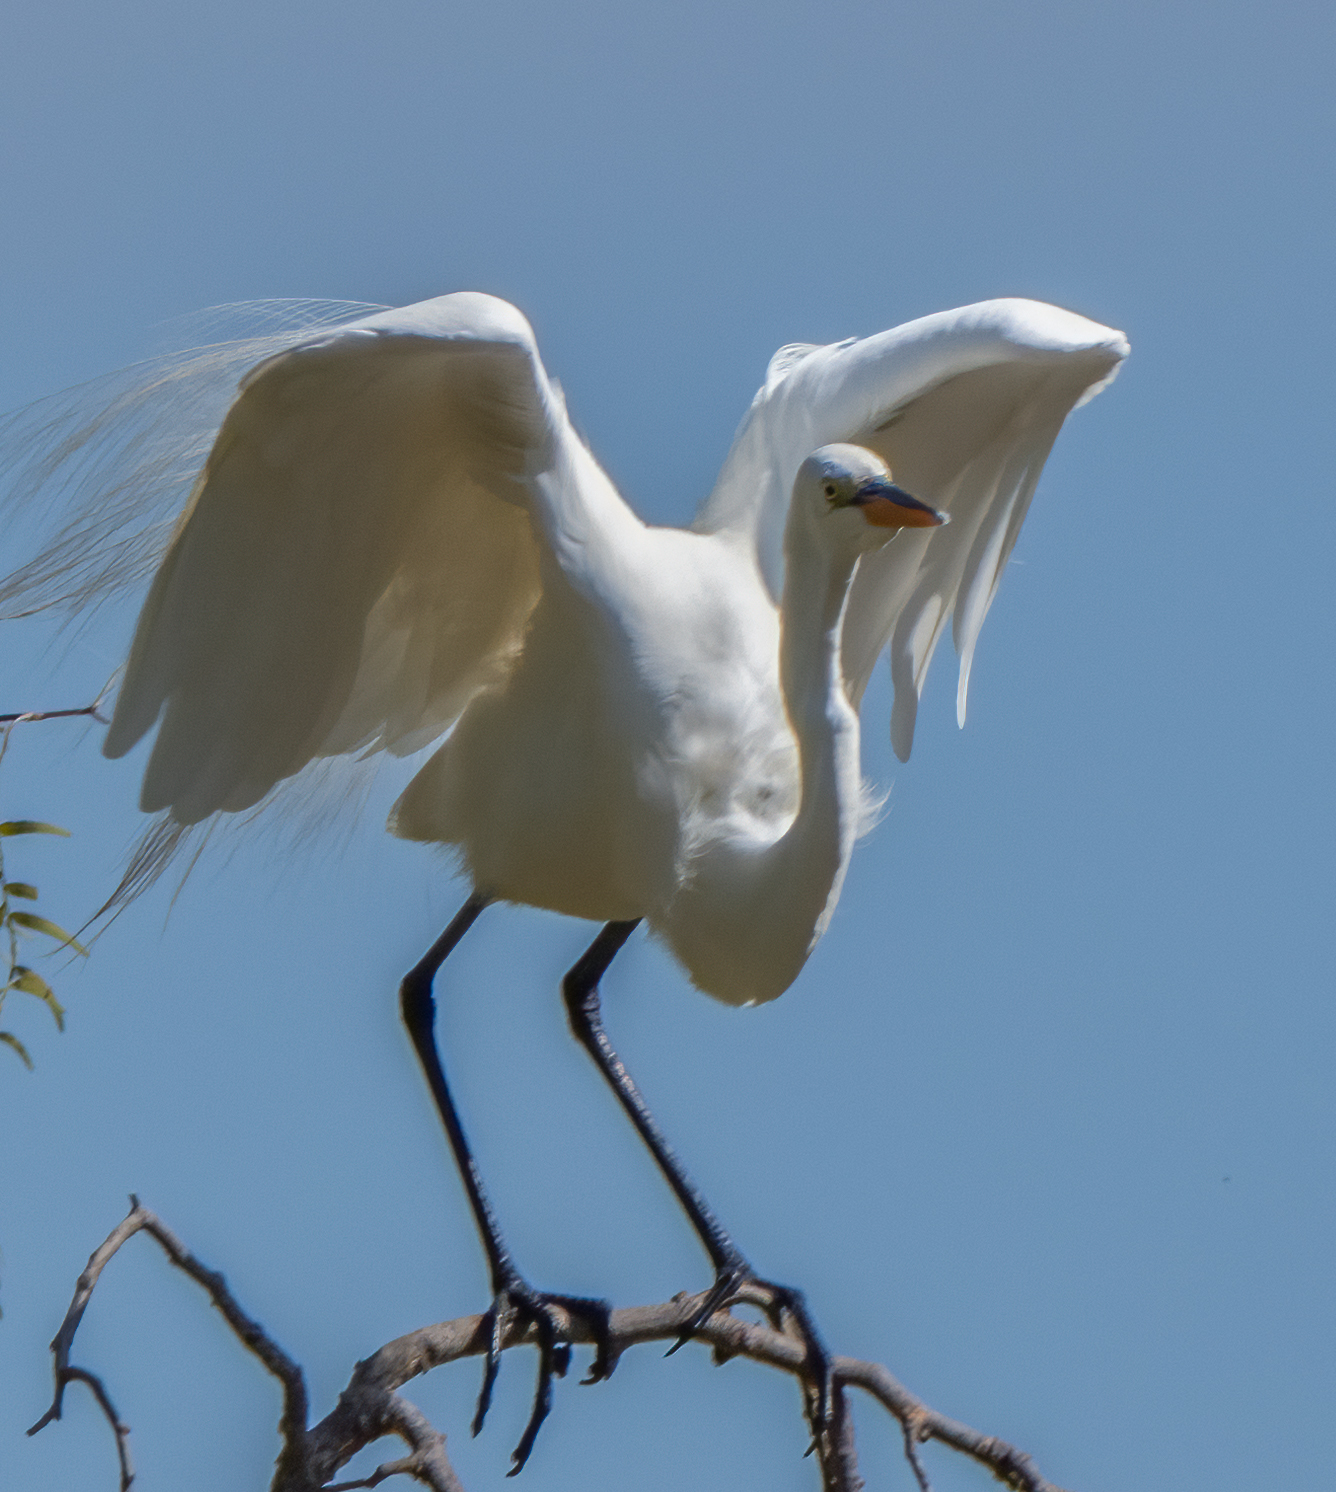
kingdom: Animalia
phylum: Chordata
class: Aves
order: Pelecaniformes
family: Ardeidae
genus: Ardea
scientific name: Ardea alba
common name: Great egret
